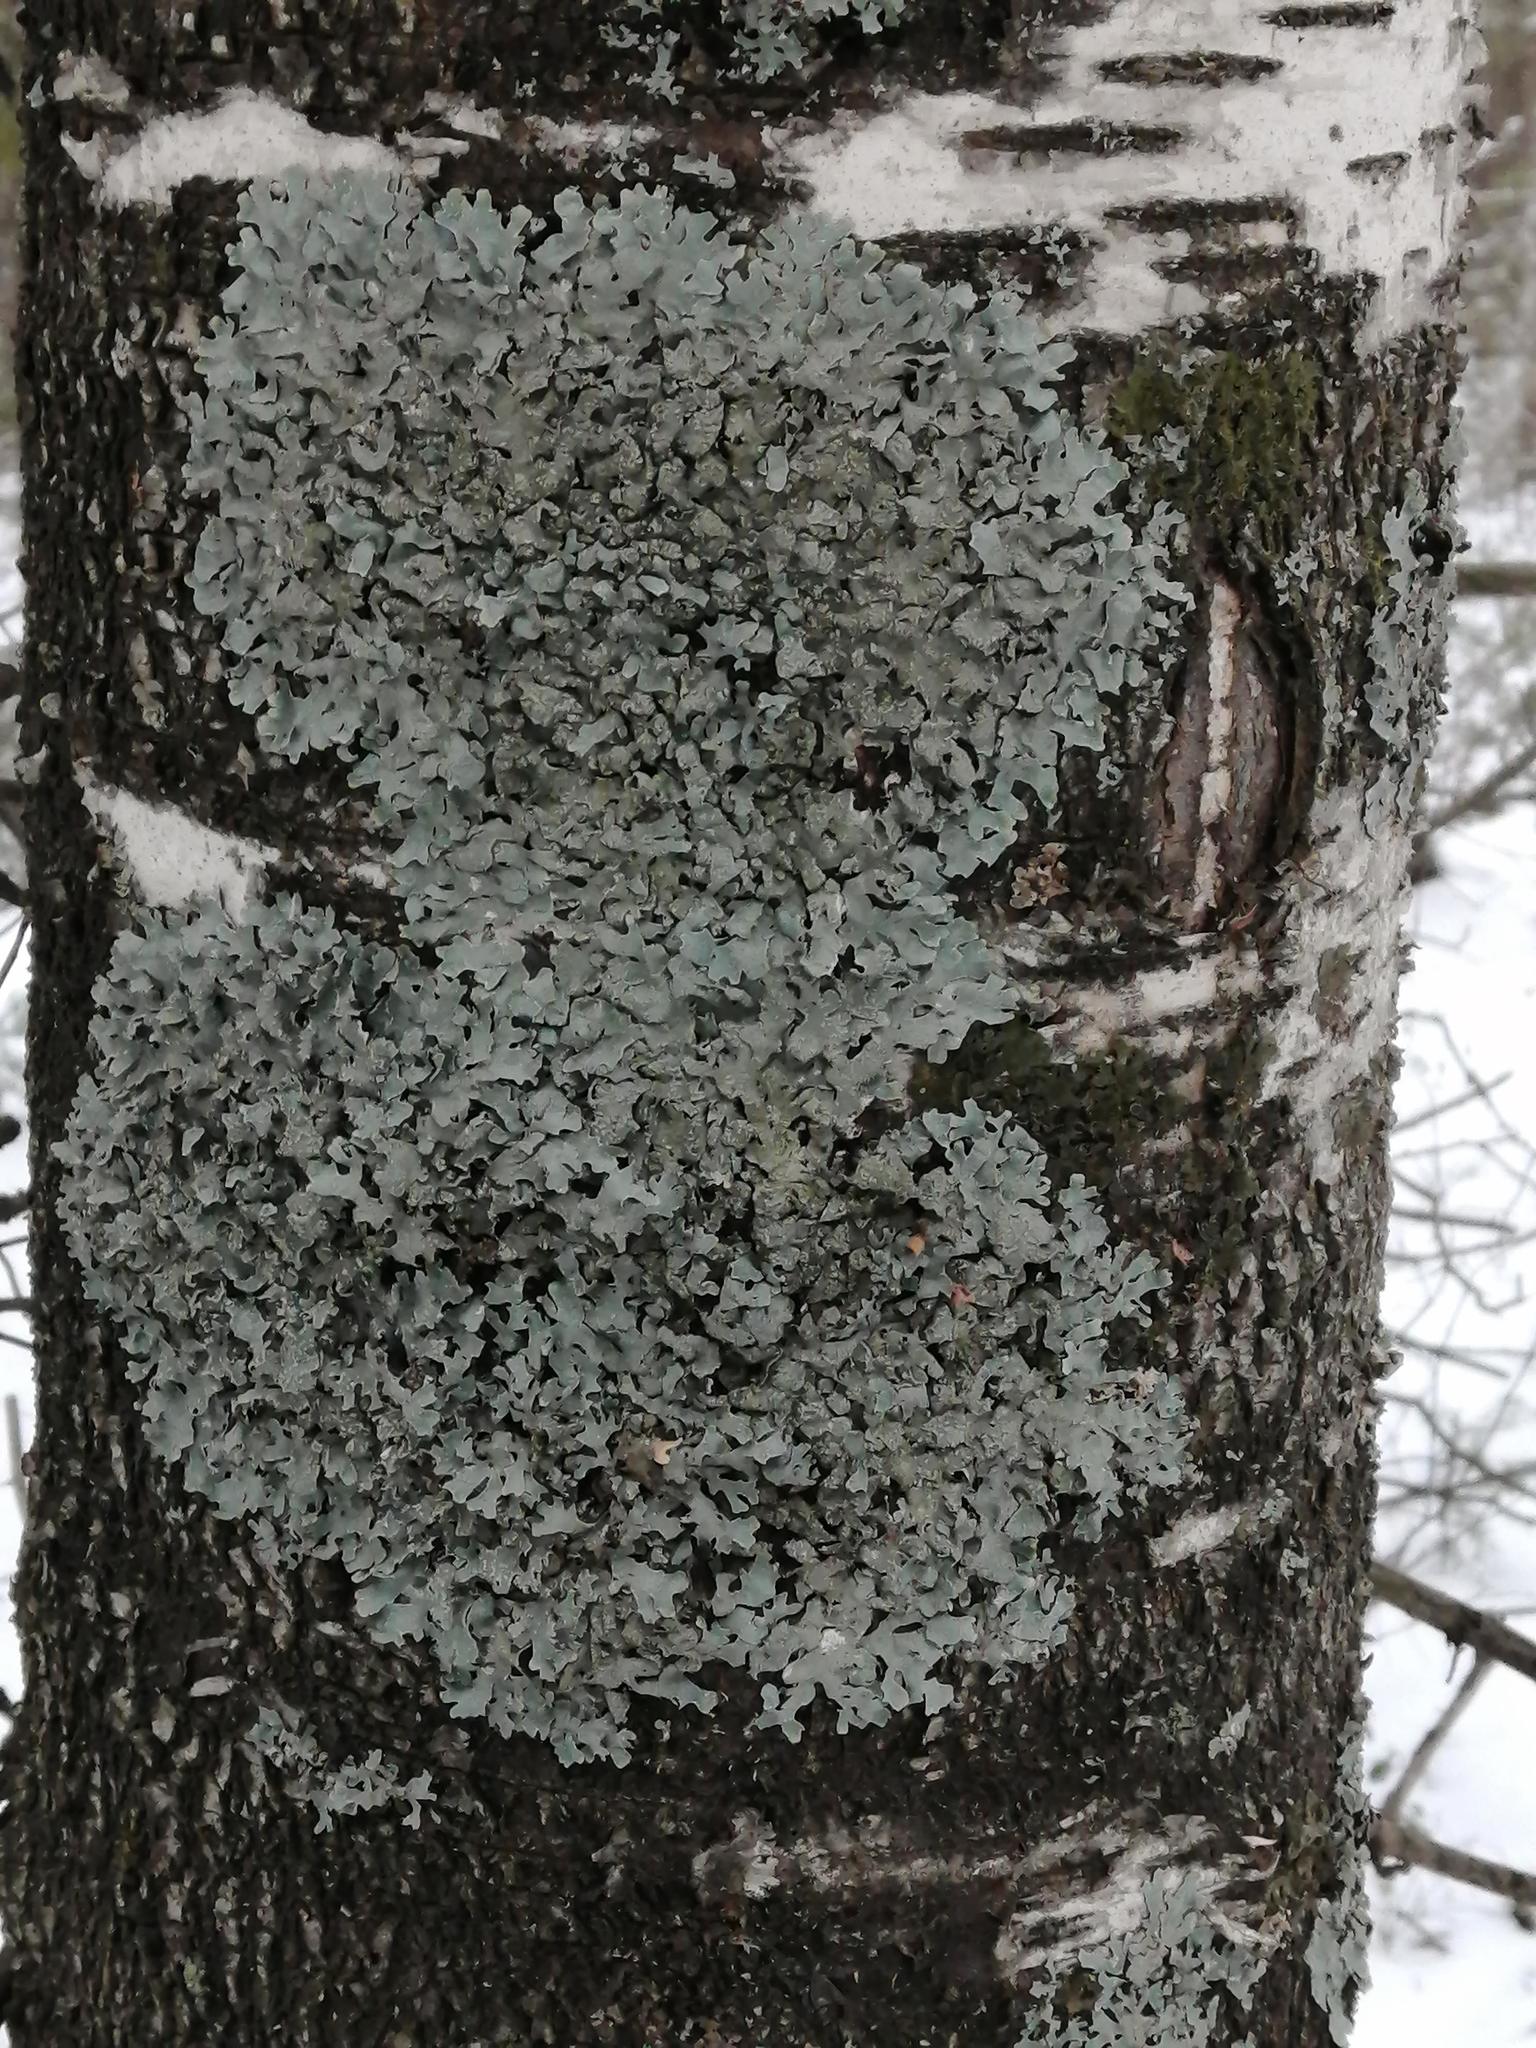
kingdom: Fungi
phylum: Ascomycota
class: Lecanoromycetes
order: Lecanorales
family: Parmeliaceae
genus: Parmelia
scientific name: Parmelia sulcata
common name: Netted shield lichen
